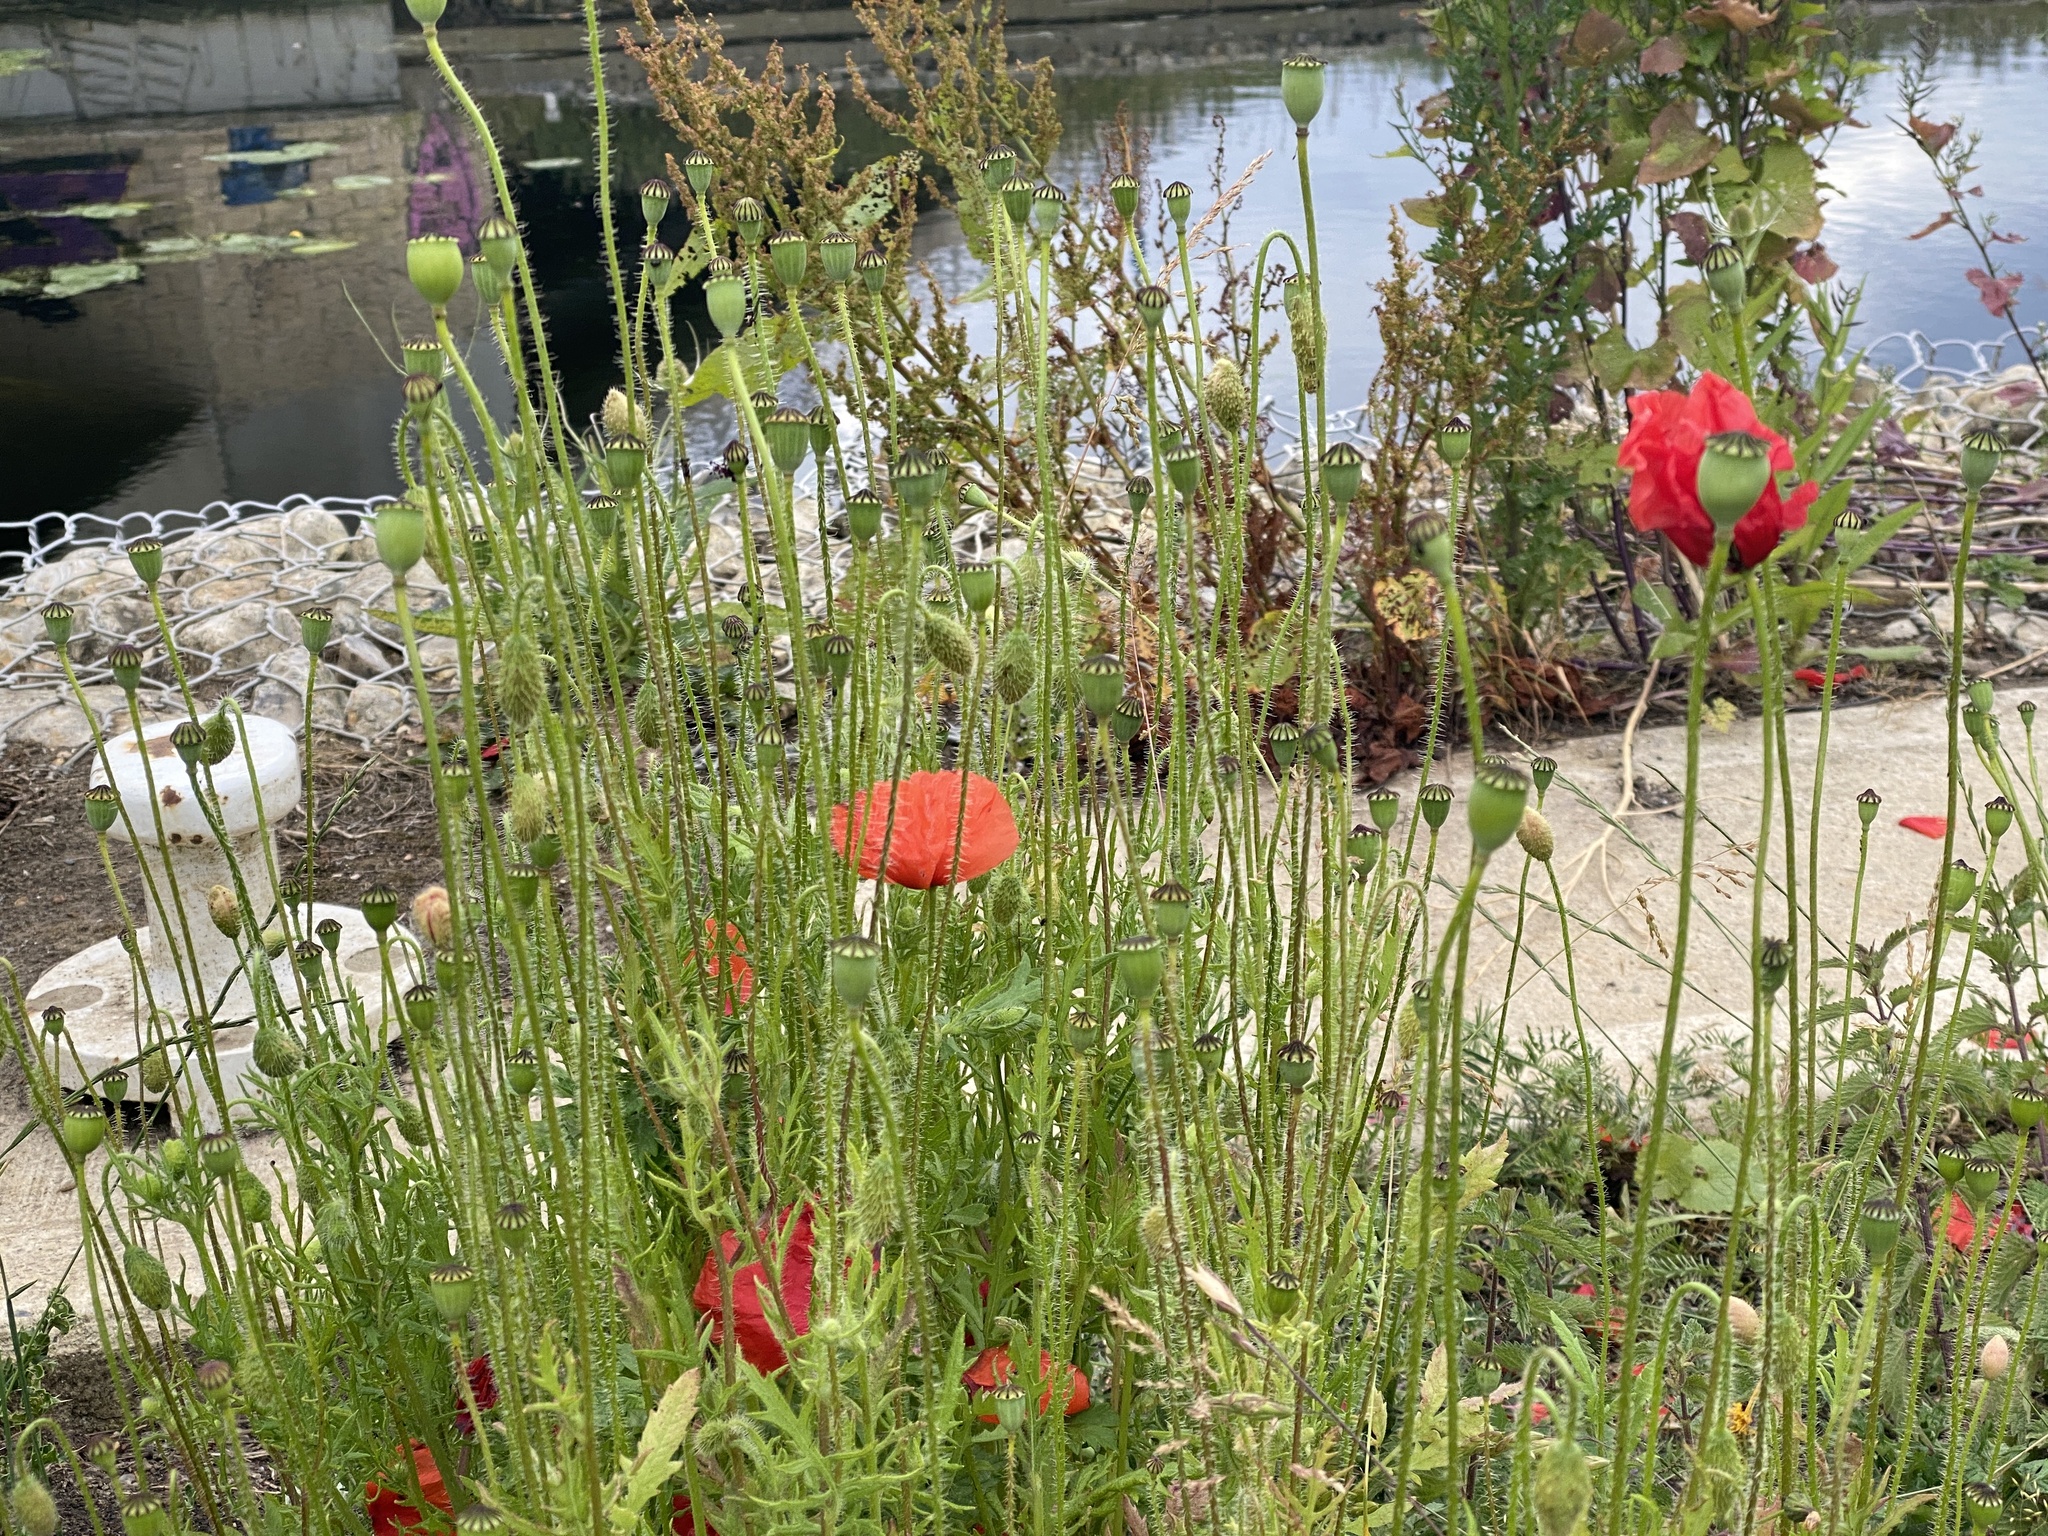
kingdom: Plantae
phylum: Tracheophyta
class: Magnoliopsida
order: Ranunculales
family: Papaveraceae
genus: Papaver
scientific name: Papaver rhoeas
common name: Corn poppy
